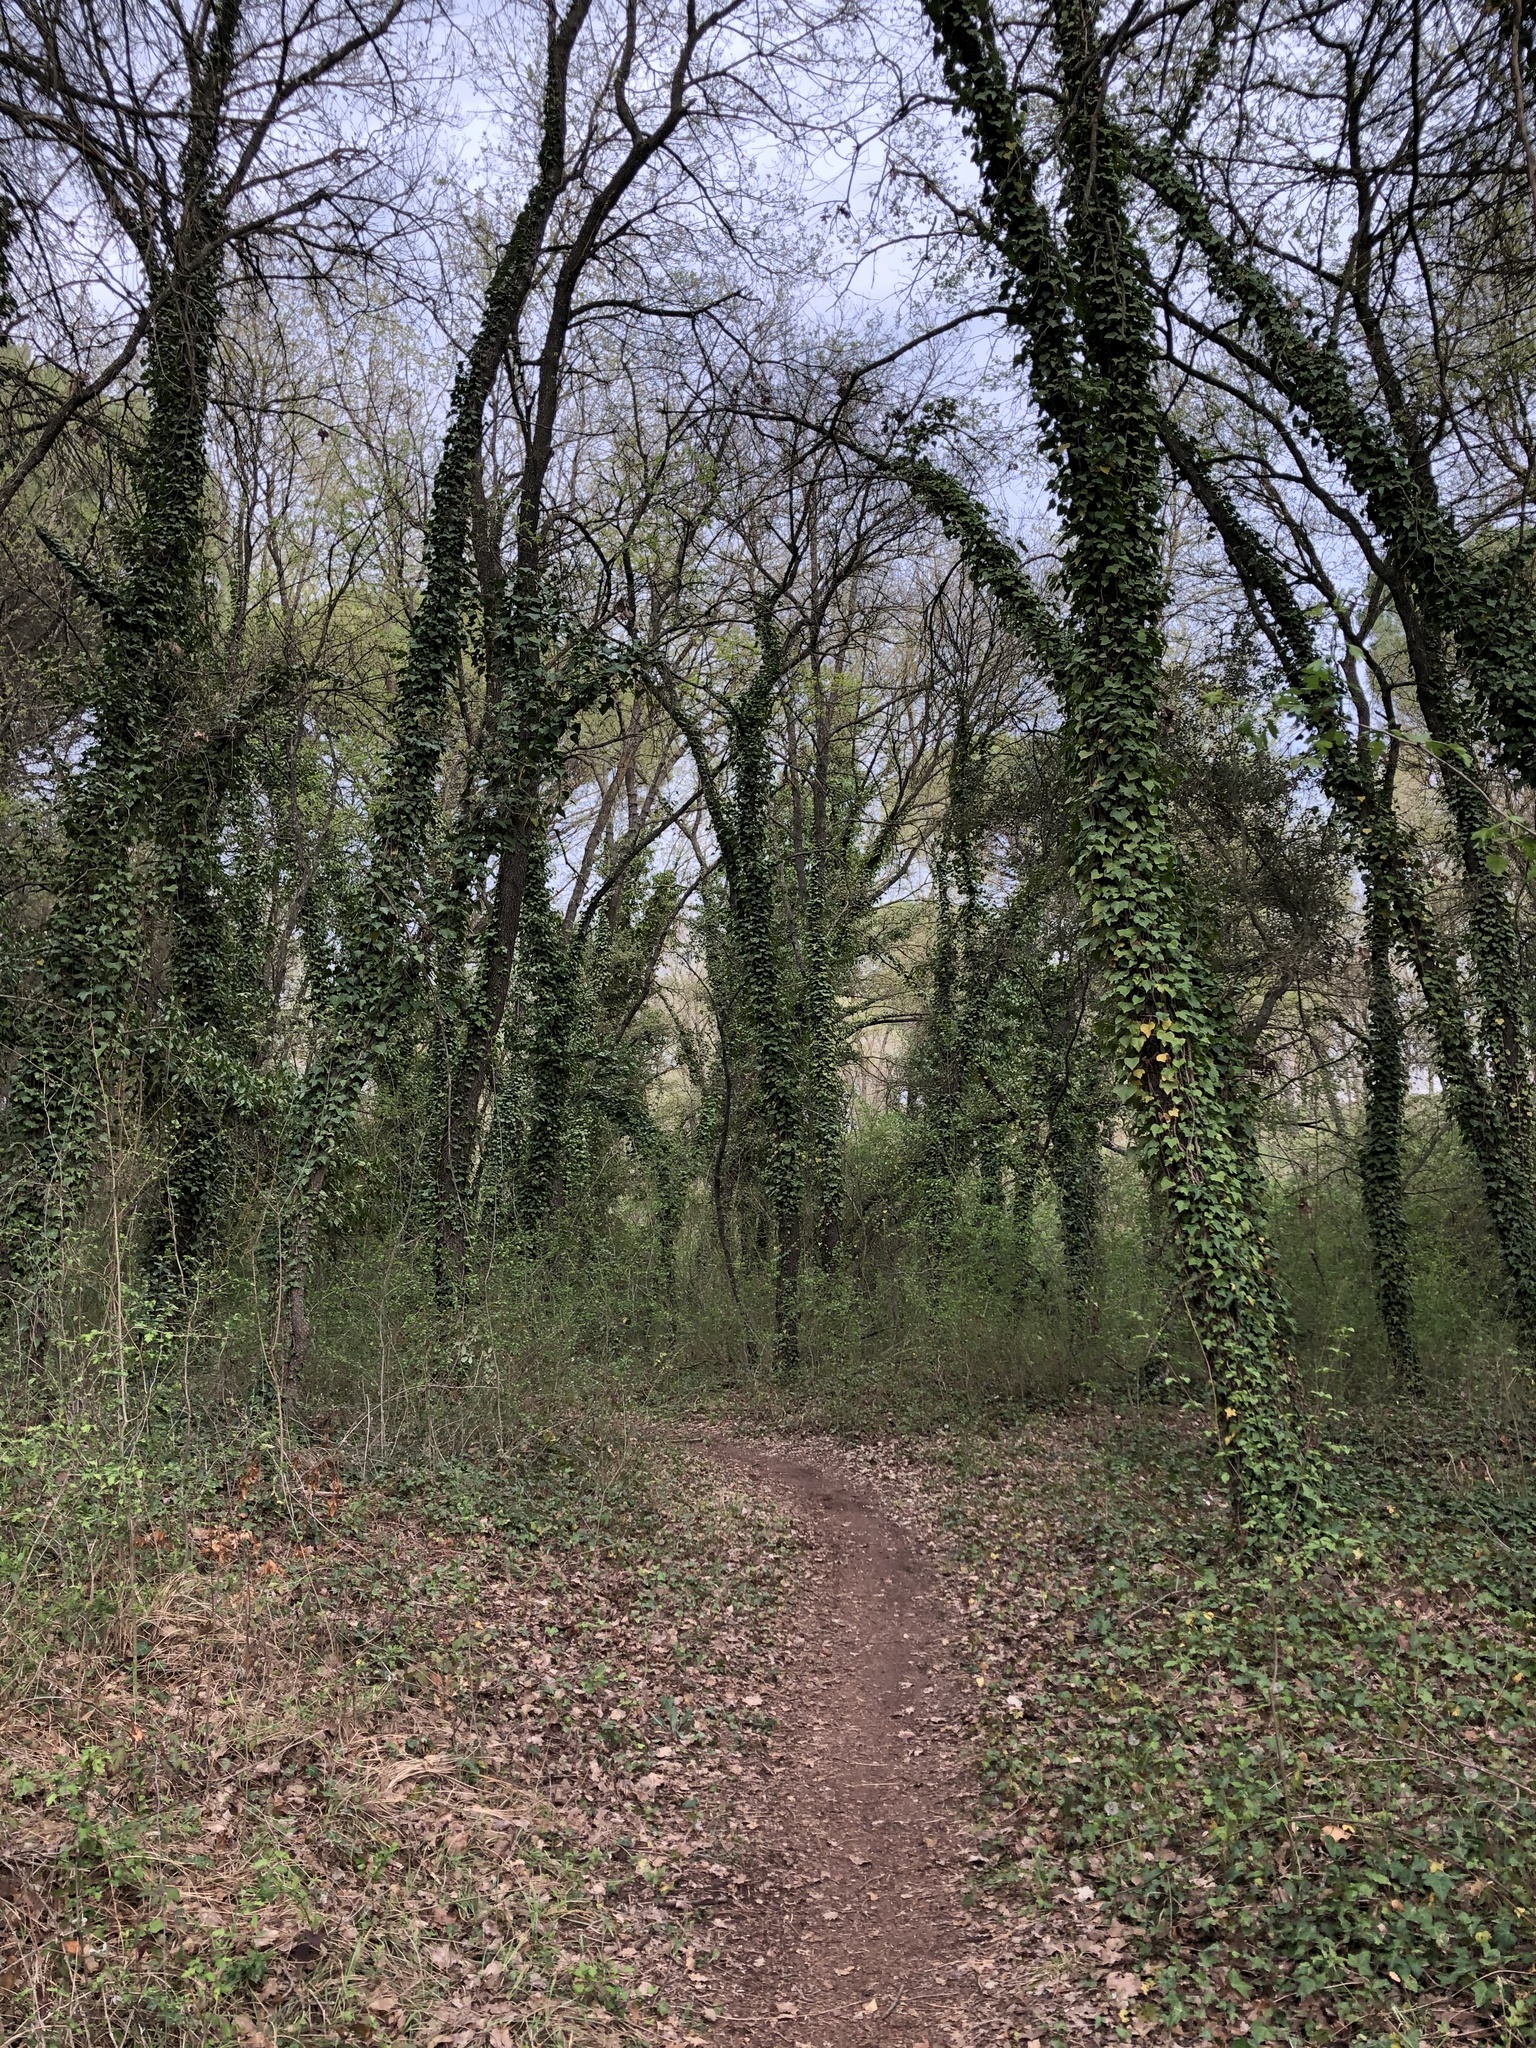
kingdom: Plantae
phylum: Tracheophyta
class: Magnoliopsida
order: Apiales
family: Araliaceae
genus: Hedera
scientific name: Hedera helix
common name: Ivy
